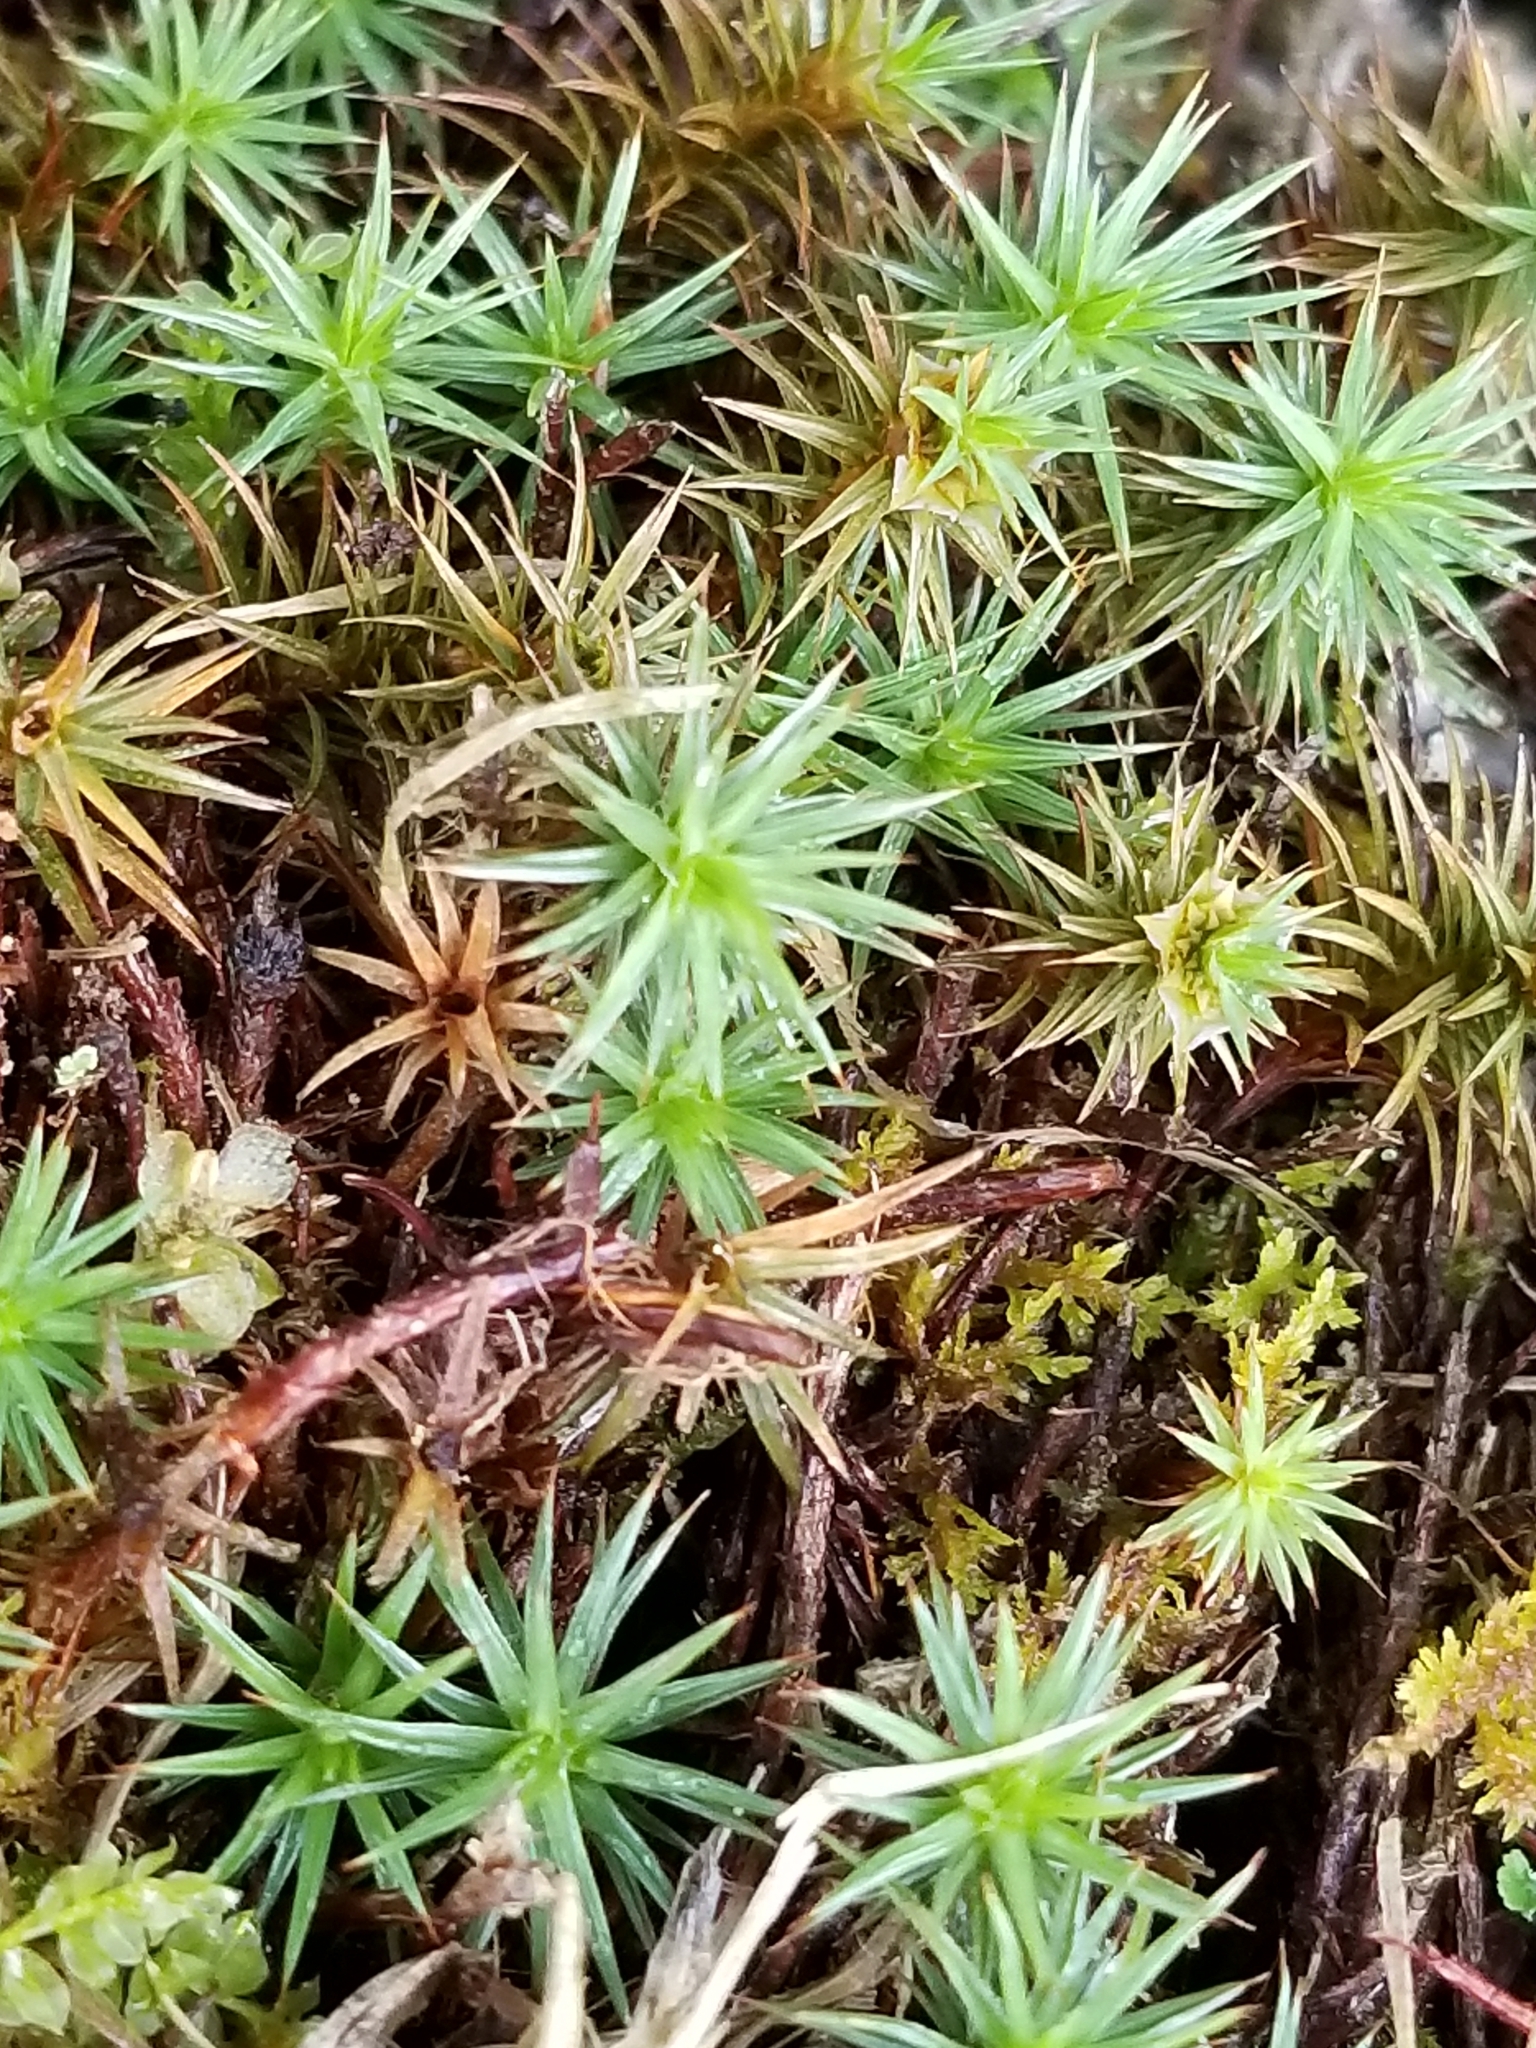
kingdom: Plantae
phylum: Bryophyta
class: Polytrichopsida
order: Polytrichales
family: Polytrichaceae
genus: Polytrichum
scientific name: Polytrichum juniperinum
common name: Juniper haircap moss
